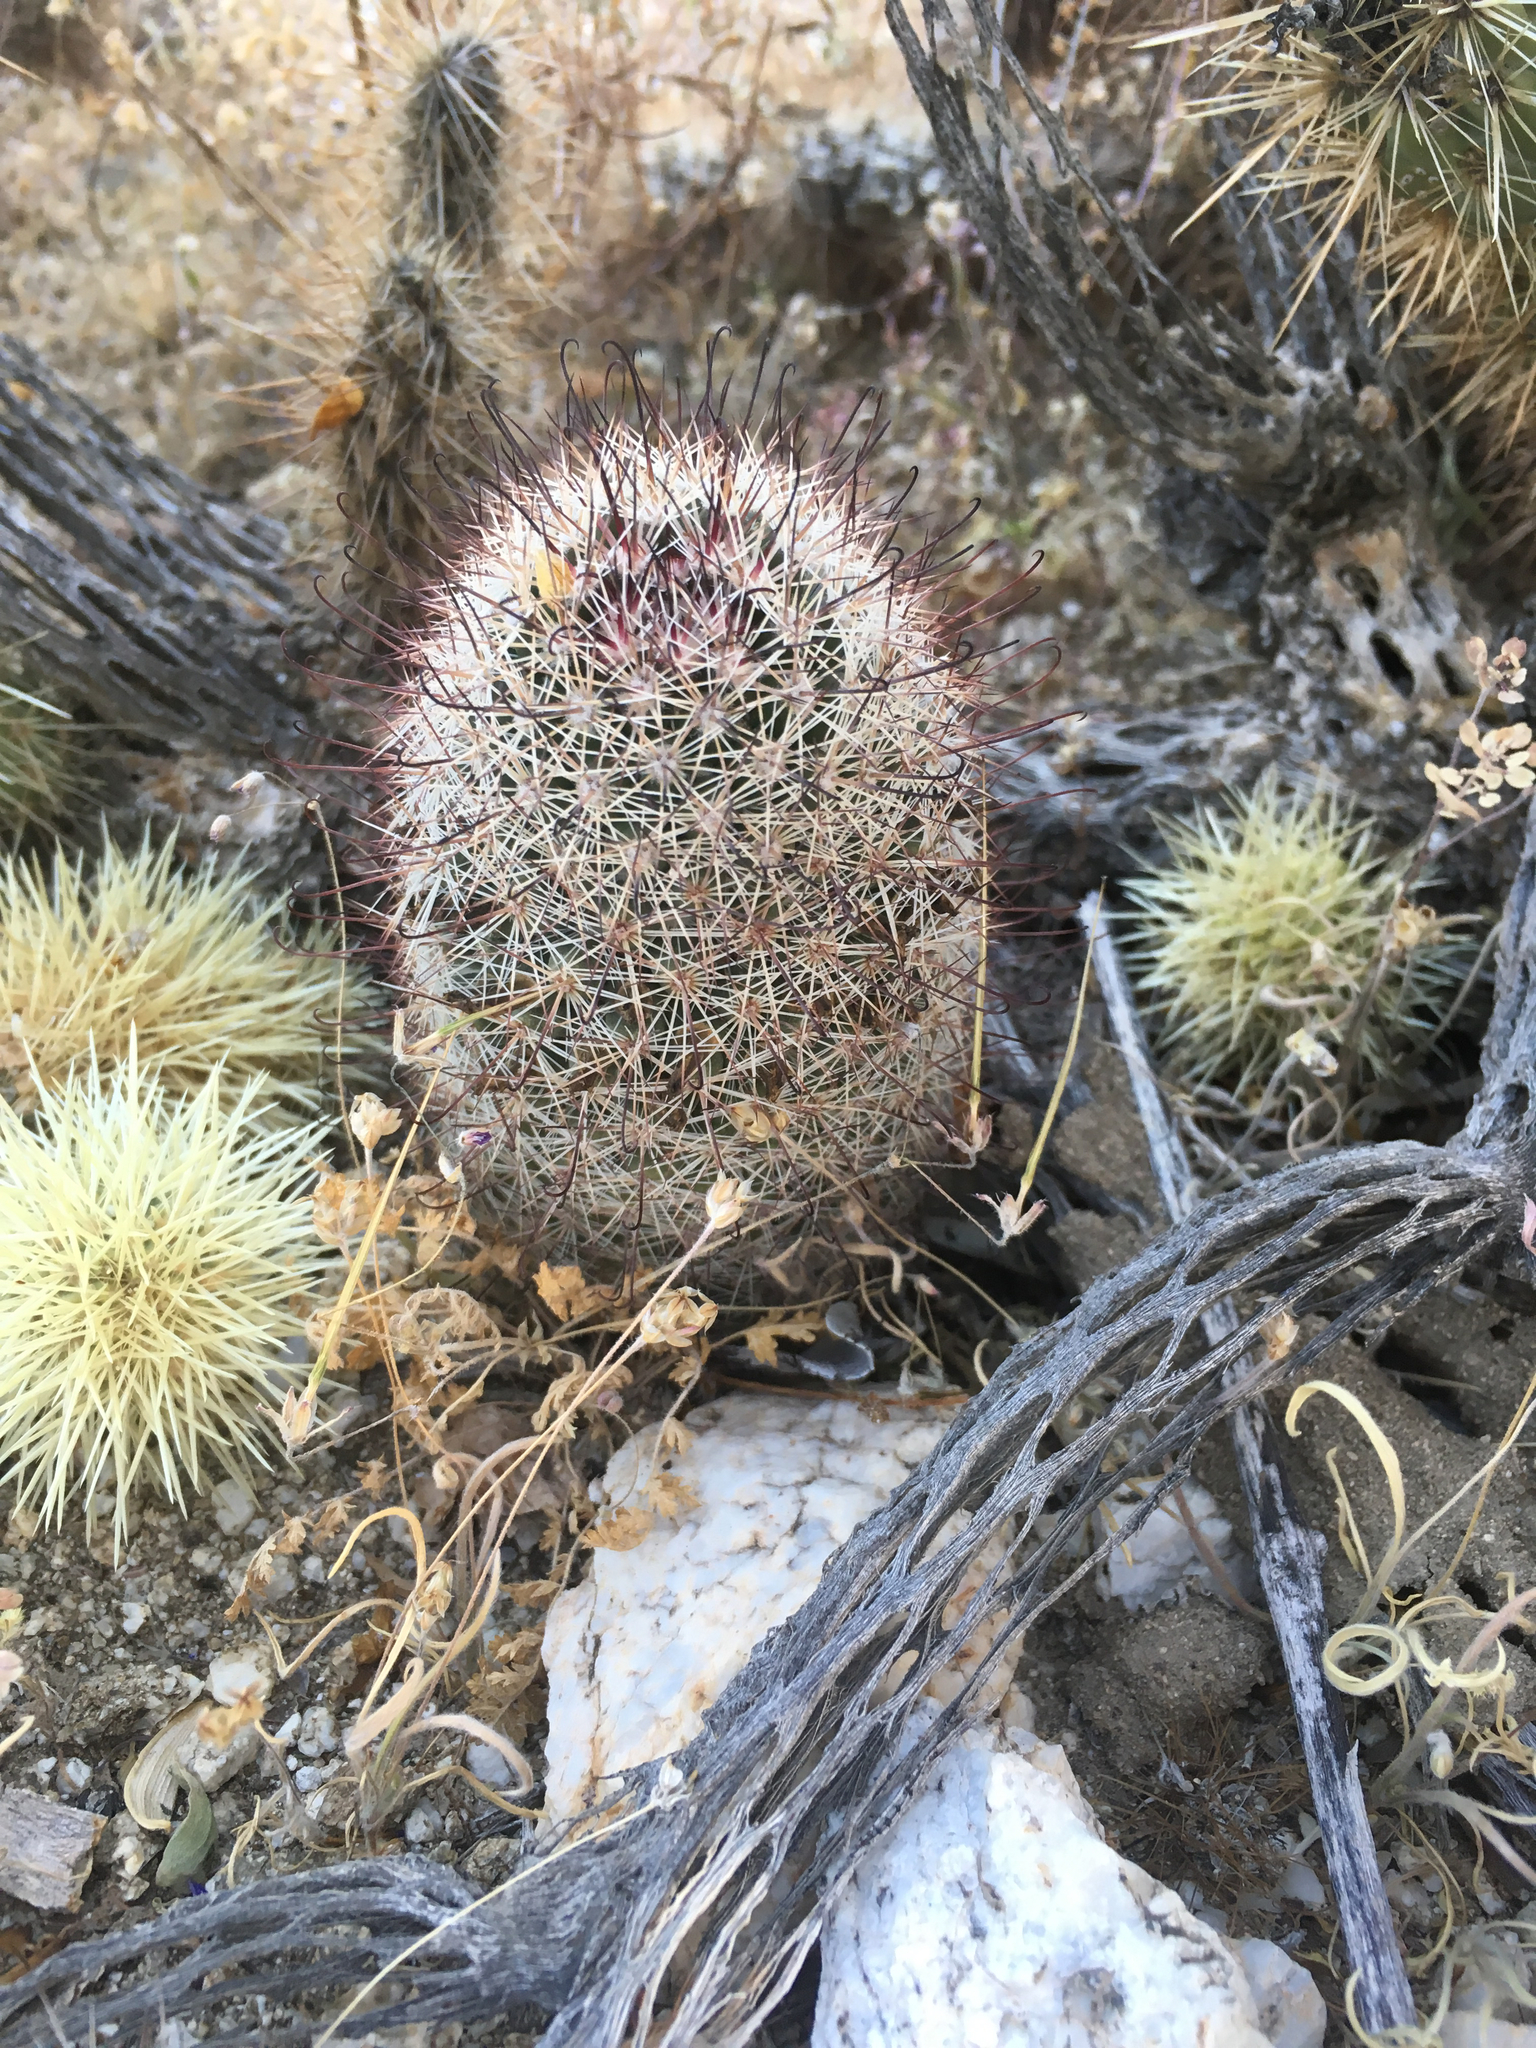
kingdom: Plantae
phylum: Tracheophyta
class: Magnoliopsida
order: Caryophyllales
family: Cactaceae
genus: Cochemiea
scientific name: Cochemiea dioica
